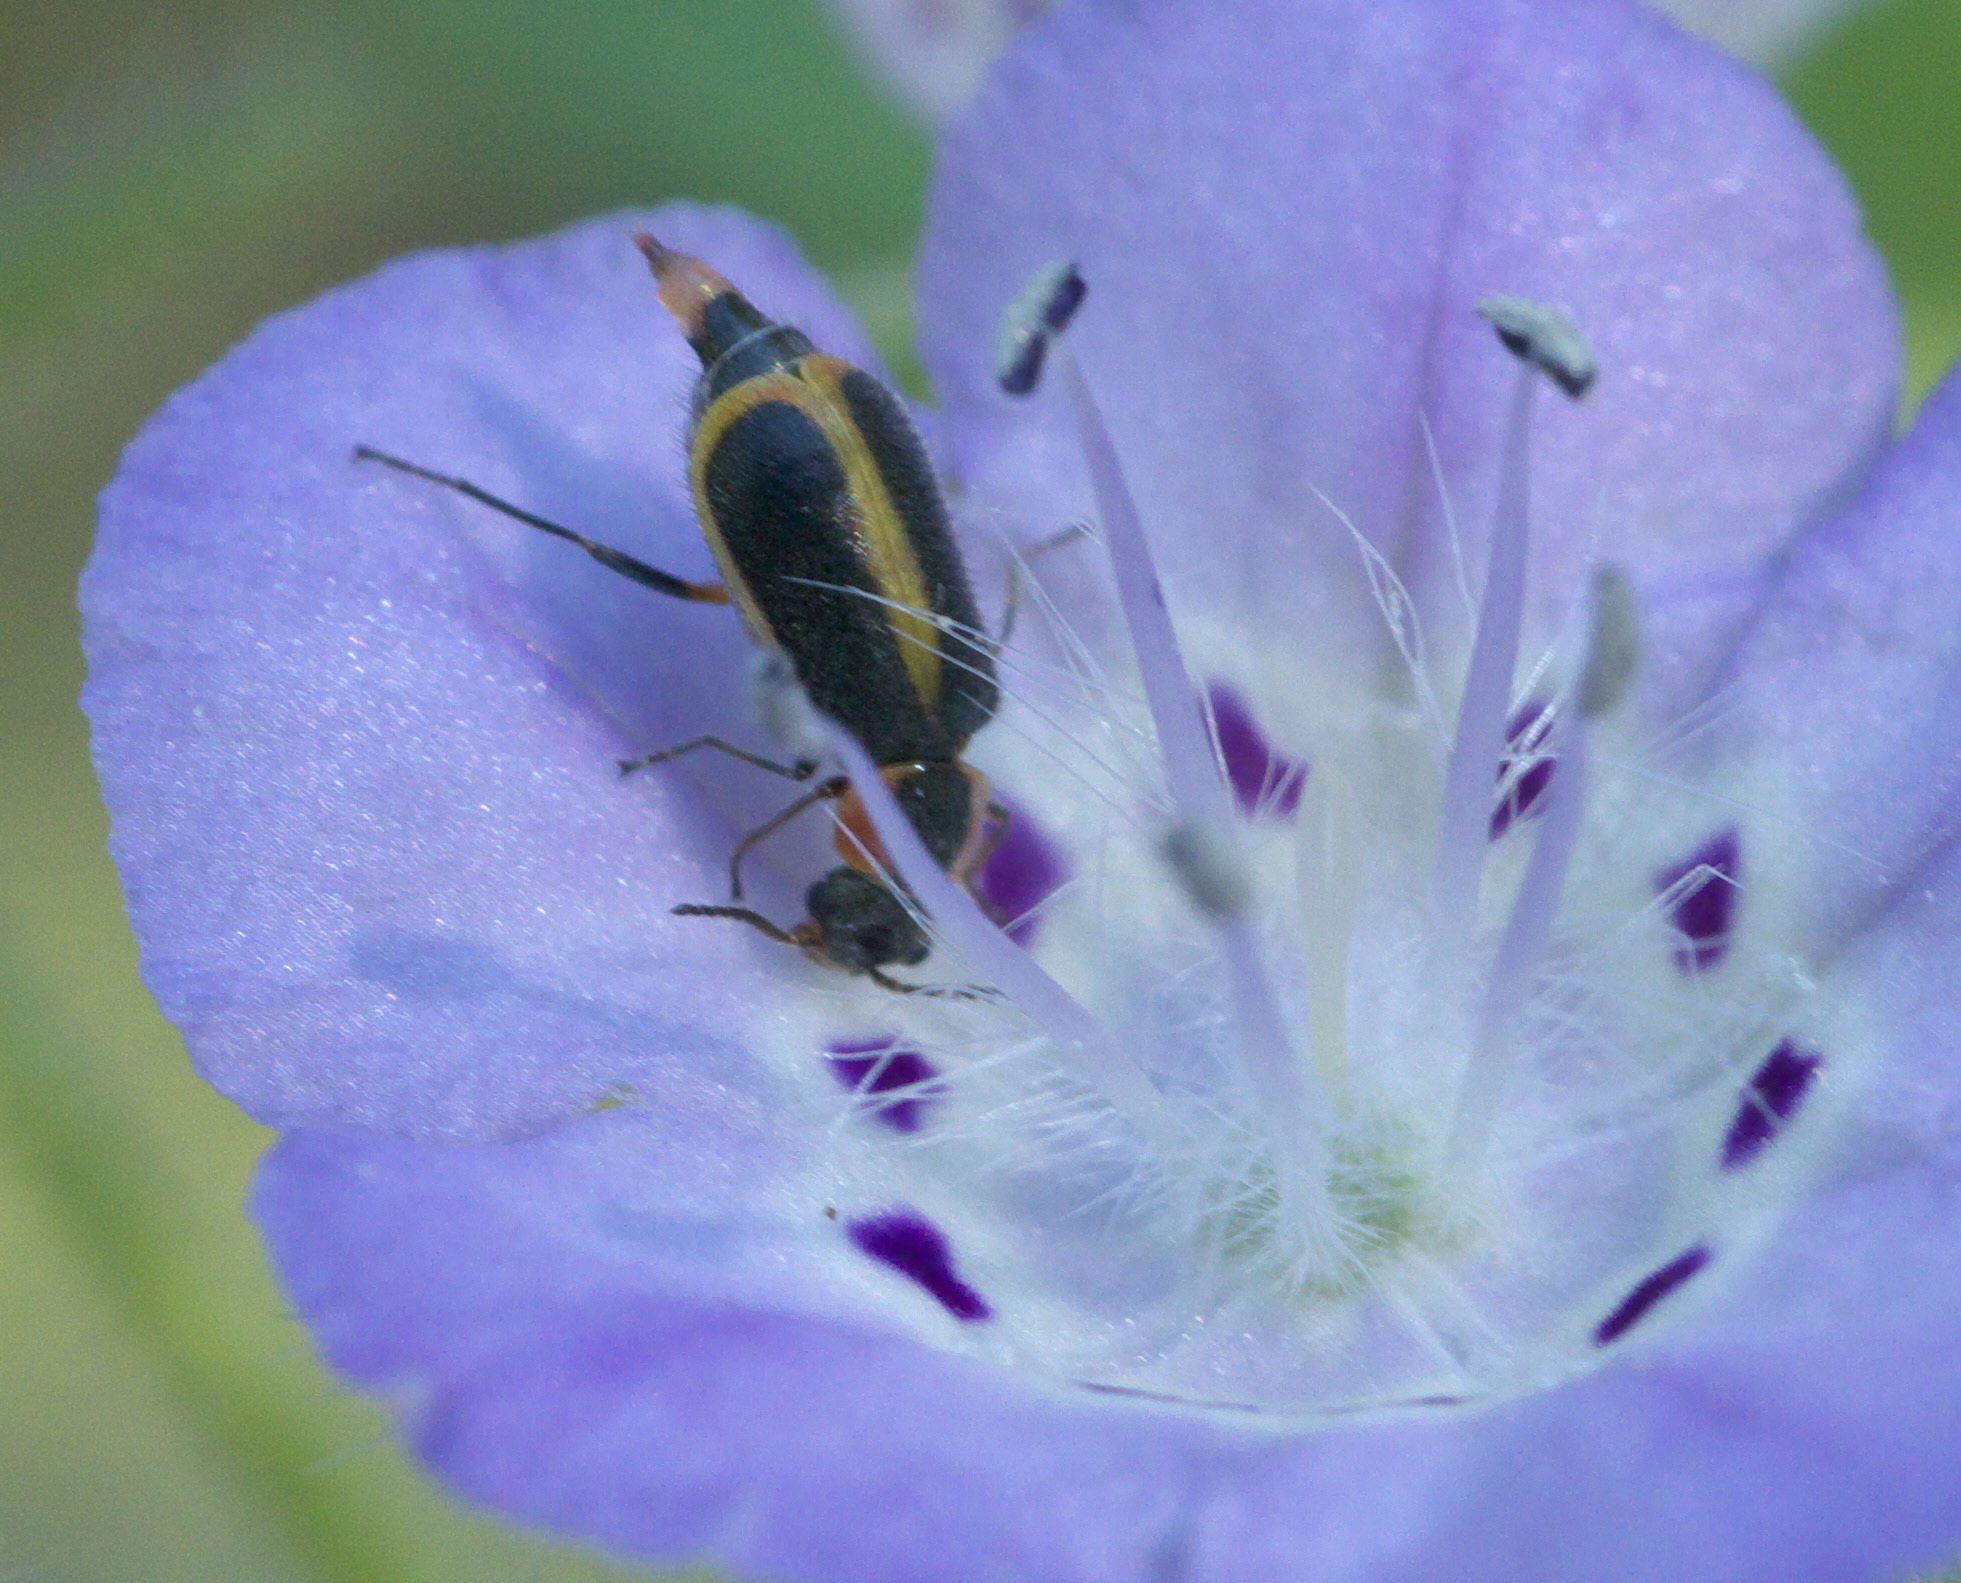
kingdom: Animalia
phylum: Arthropoda
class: Insecta
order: Coleoptera
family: Malachiidae
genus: Attalus
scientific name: Attalus
